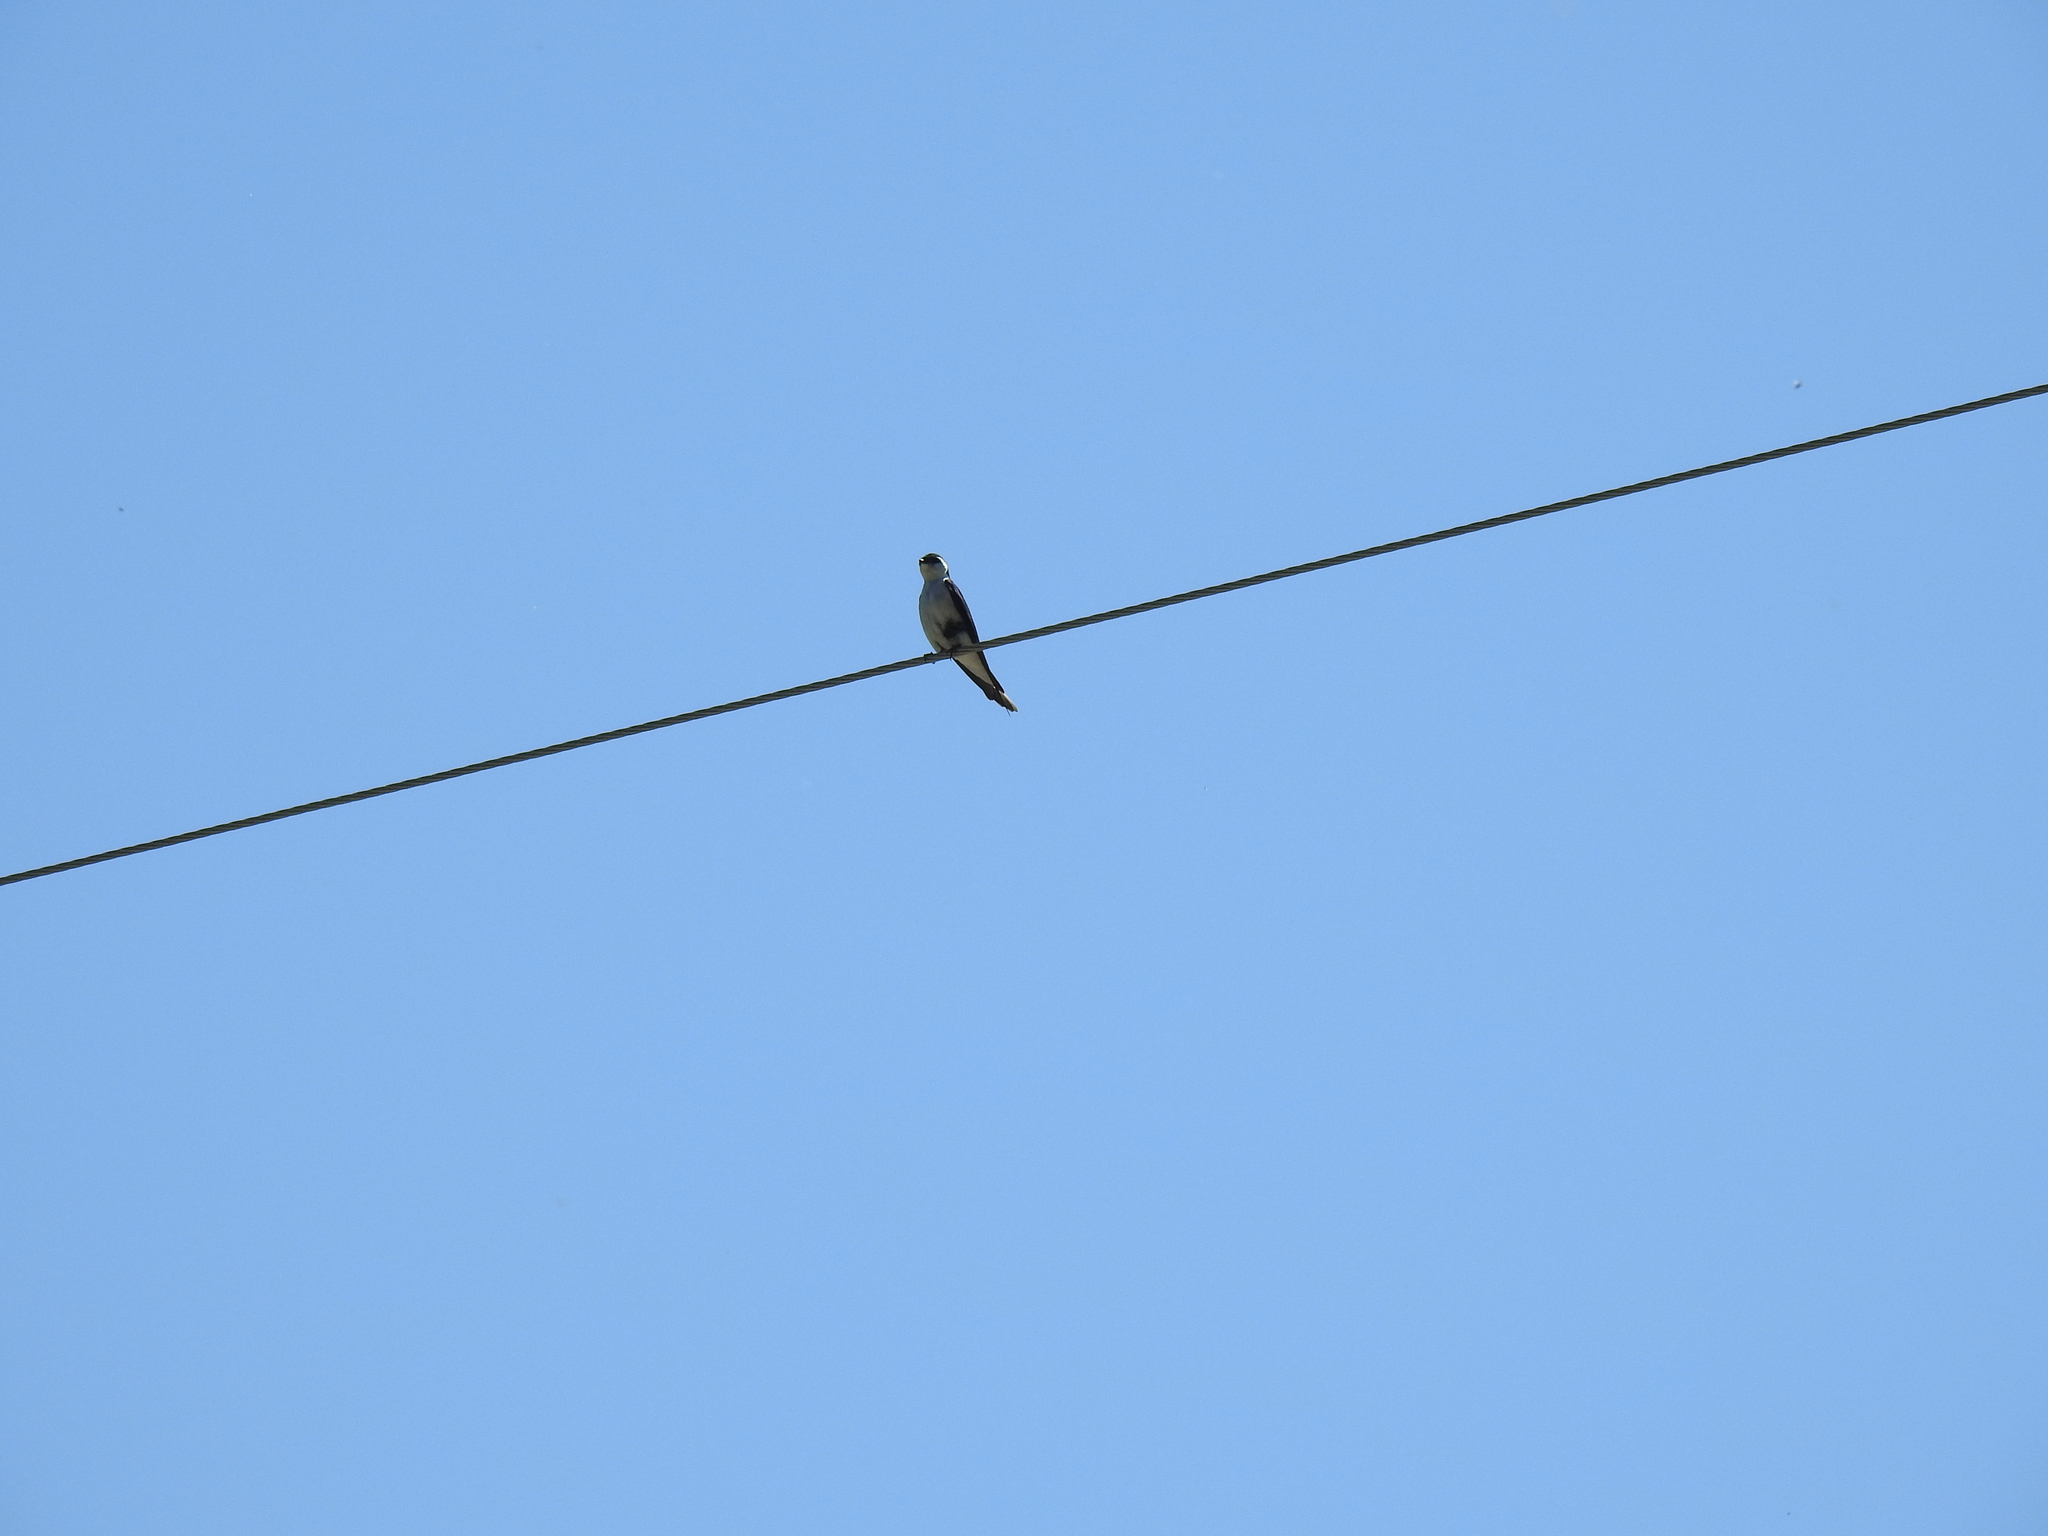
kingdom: Animalia
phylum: Chordata
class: Aves
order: Passeriformes
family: Hirundinidae
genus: Tachycineta
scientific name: Tachycineta thalassina
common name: Violet-green swallow
